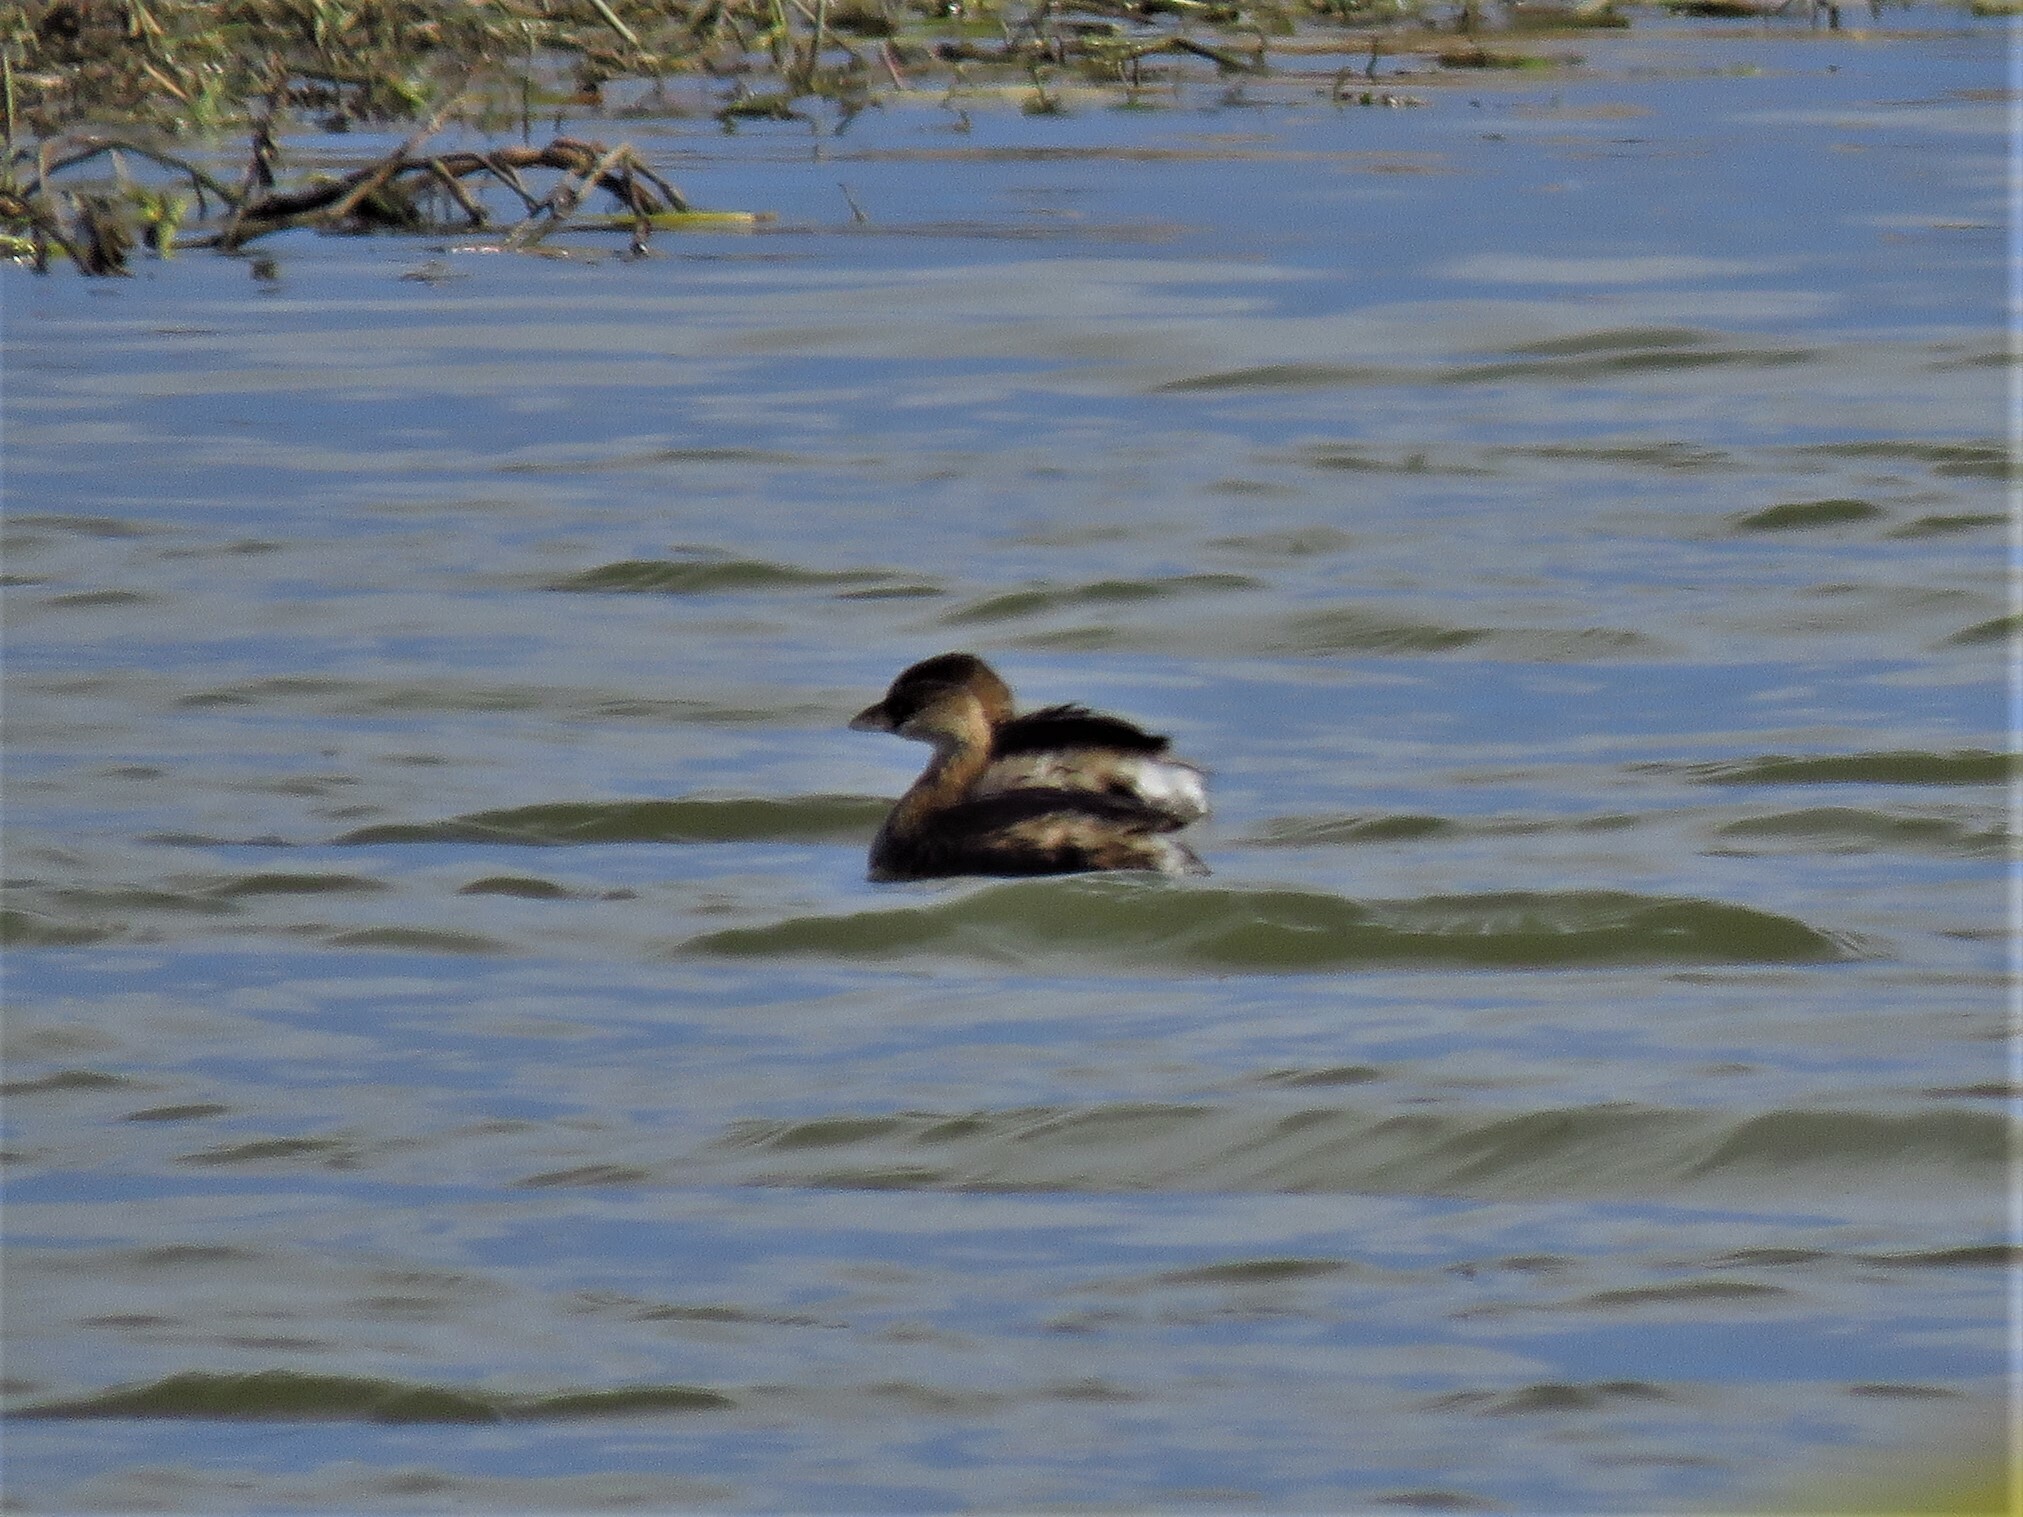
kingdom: Animalia
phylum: Chordata
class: Aves
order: Podicipediformes
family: Podicipedidae
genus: Podilymbus
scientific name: Podilymbus podiceps
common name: Pied-billed grebe
